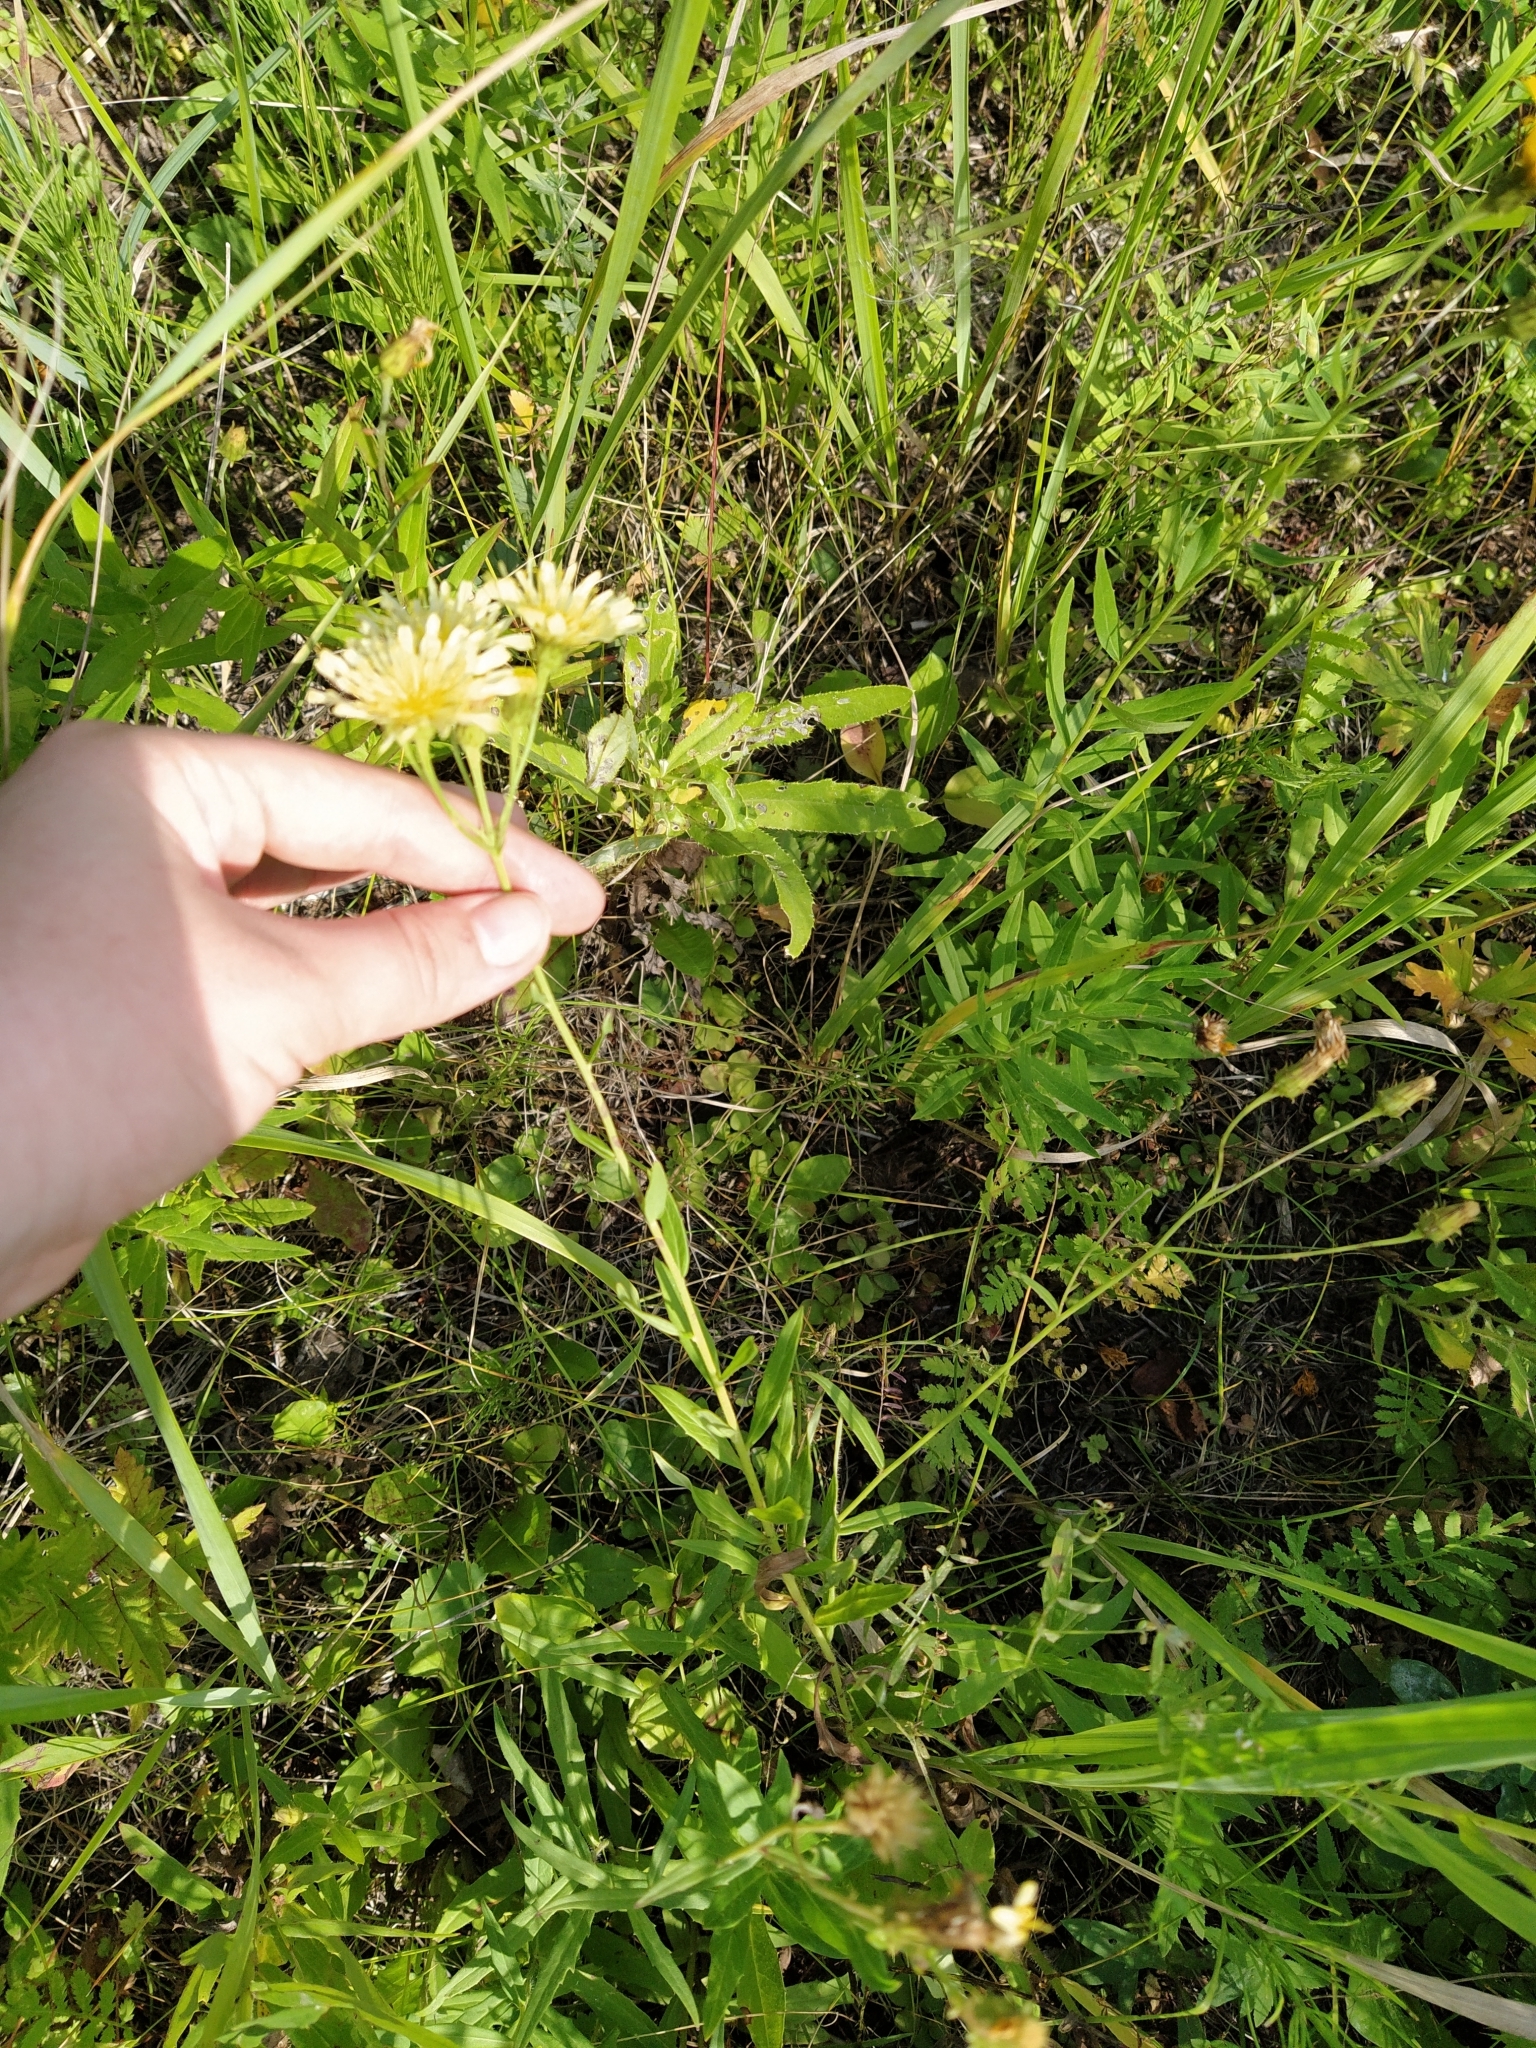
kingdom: Plantae
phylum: Tracheophyta
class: Magnoliopsida
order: Asterales
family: Asteraceae
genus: Hieracium
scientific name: Hieracium umbellatum
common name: Northern hawkweed
